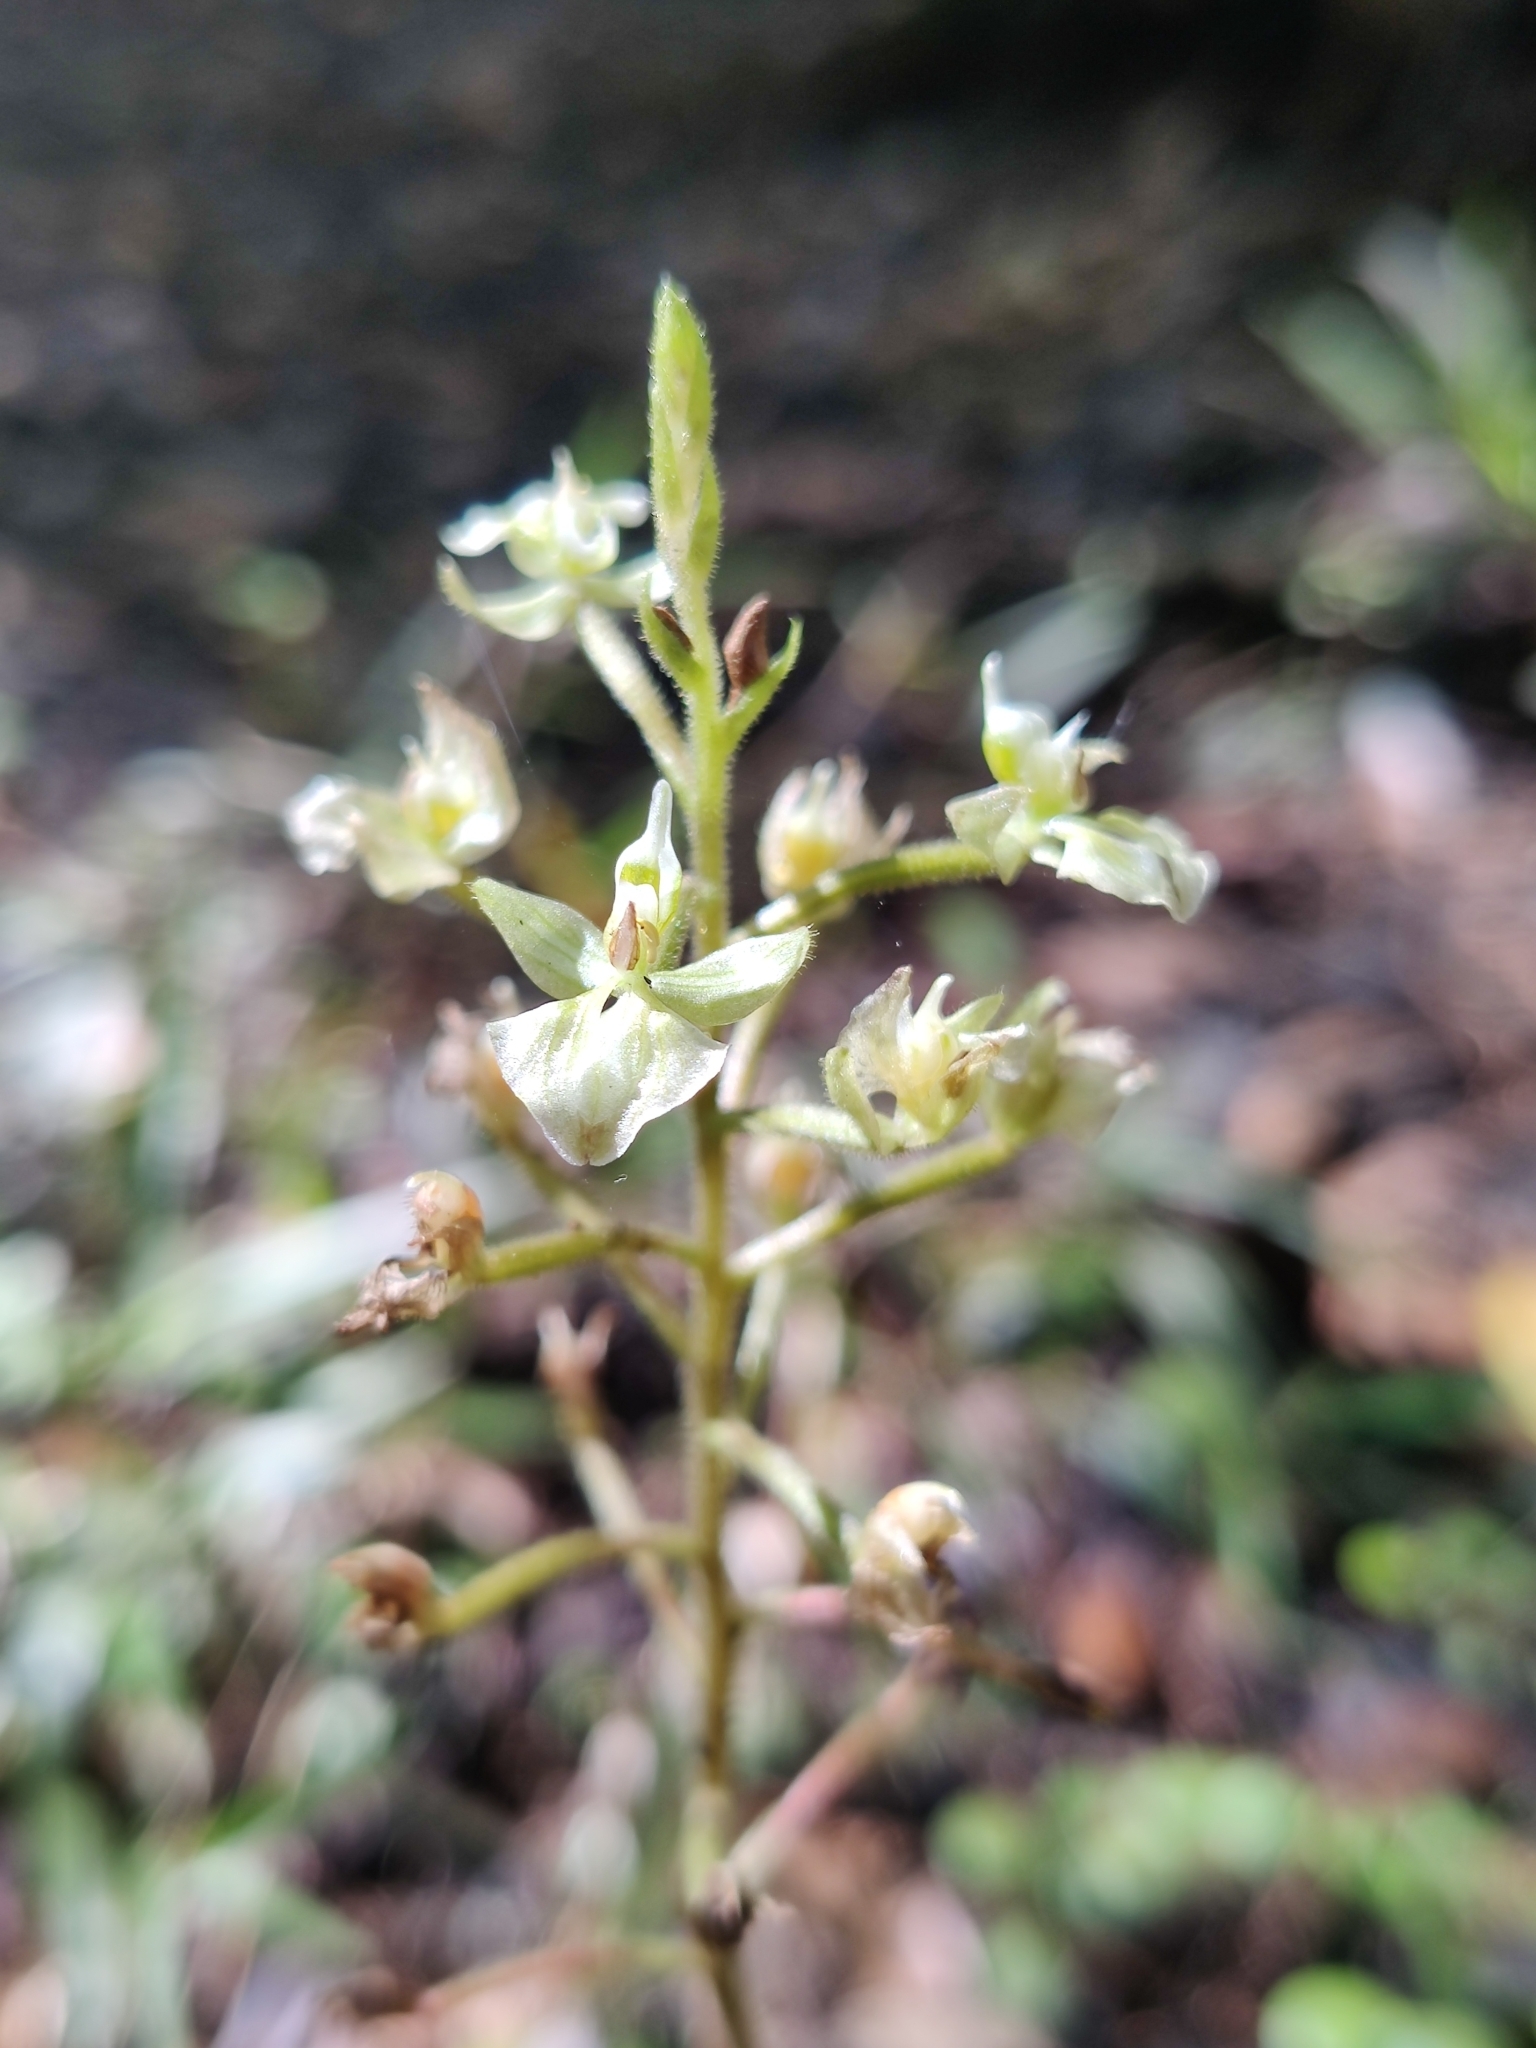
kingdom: Plantae
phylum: Tracheophyta
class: Liliopsida
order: Asparagales
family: Orchidaceae
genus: Ponthieva
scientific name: Ponthieva racemosa
